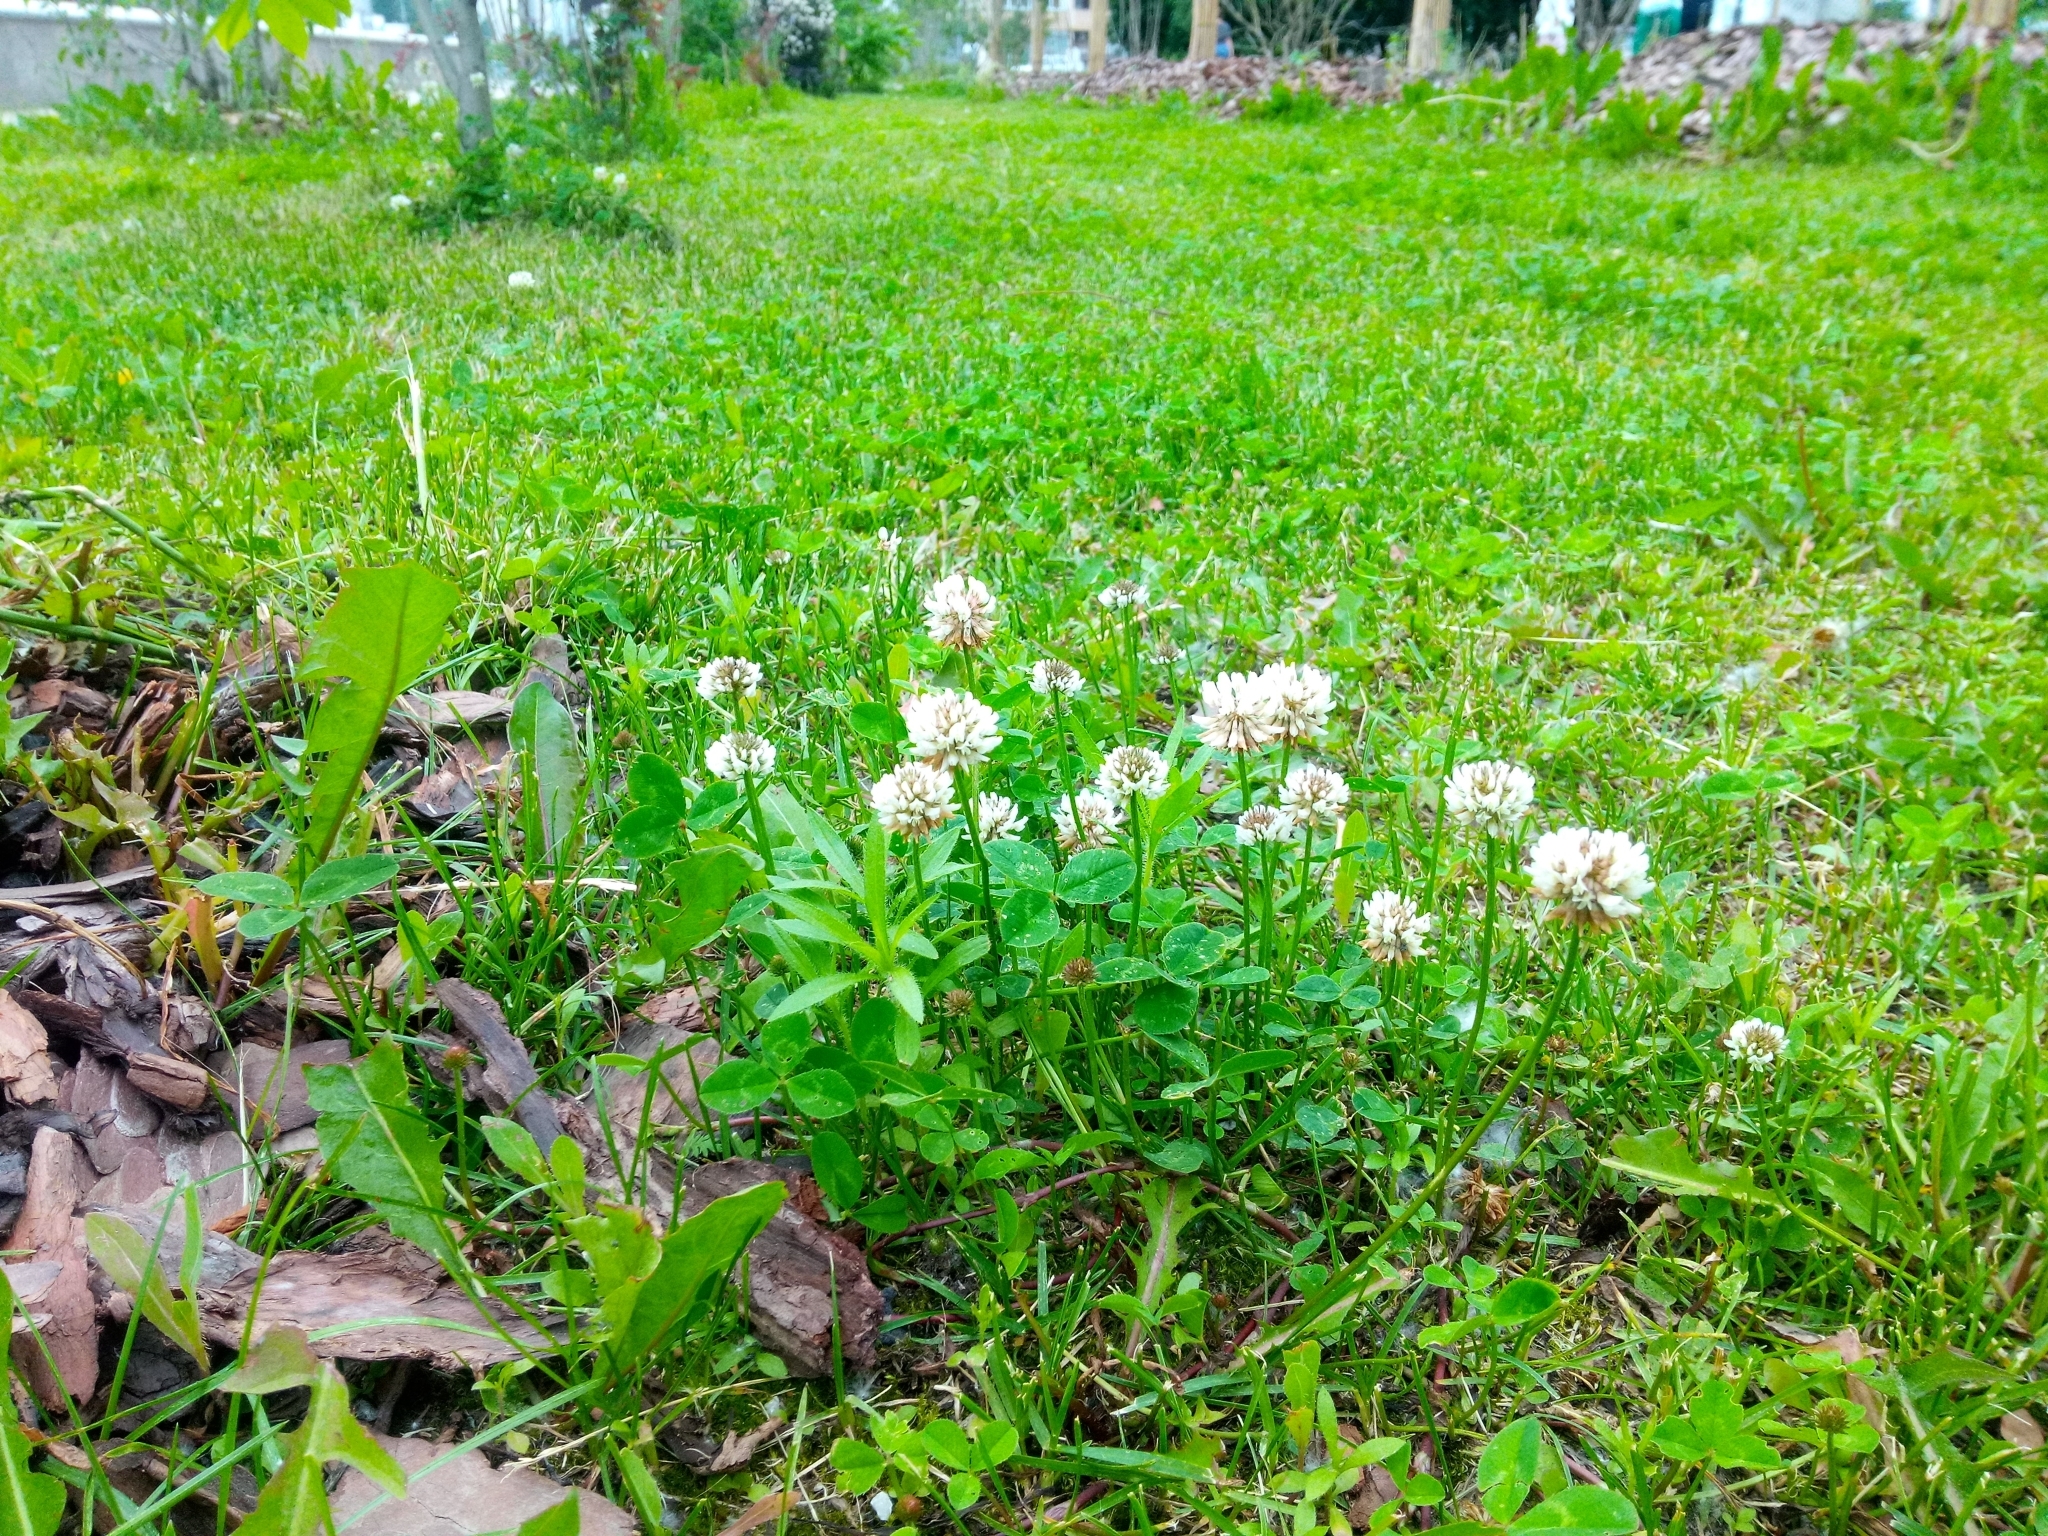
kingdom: Plantae
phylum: Tracheophyta
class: Magnoliopsida
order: Fabales
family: Fabaceae
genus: Trifolium
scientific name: Trifolium repens
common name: White clover
